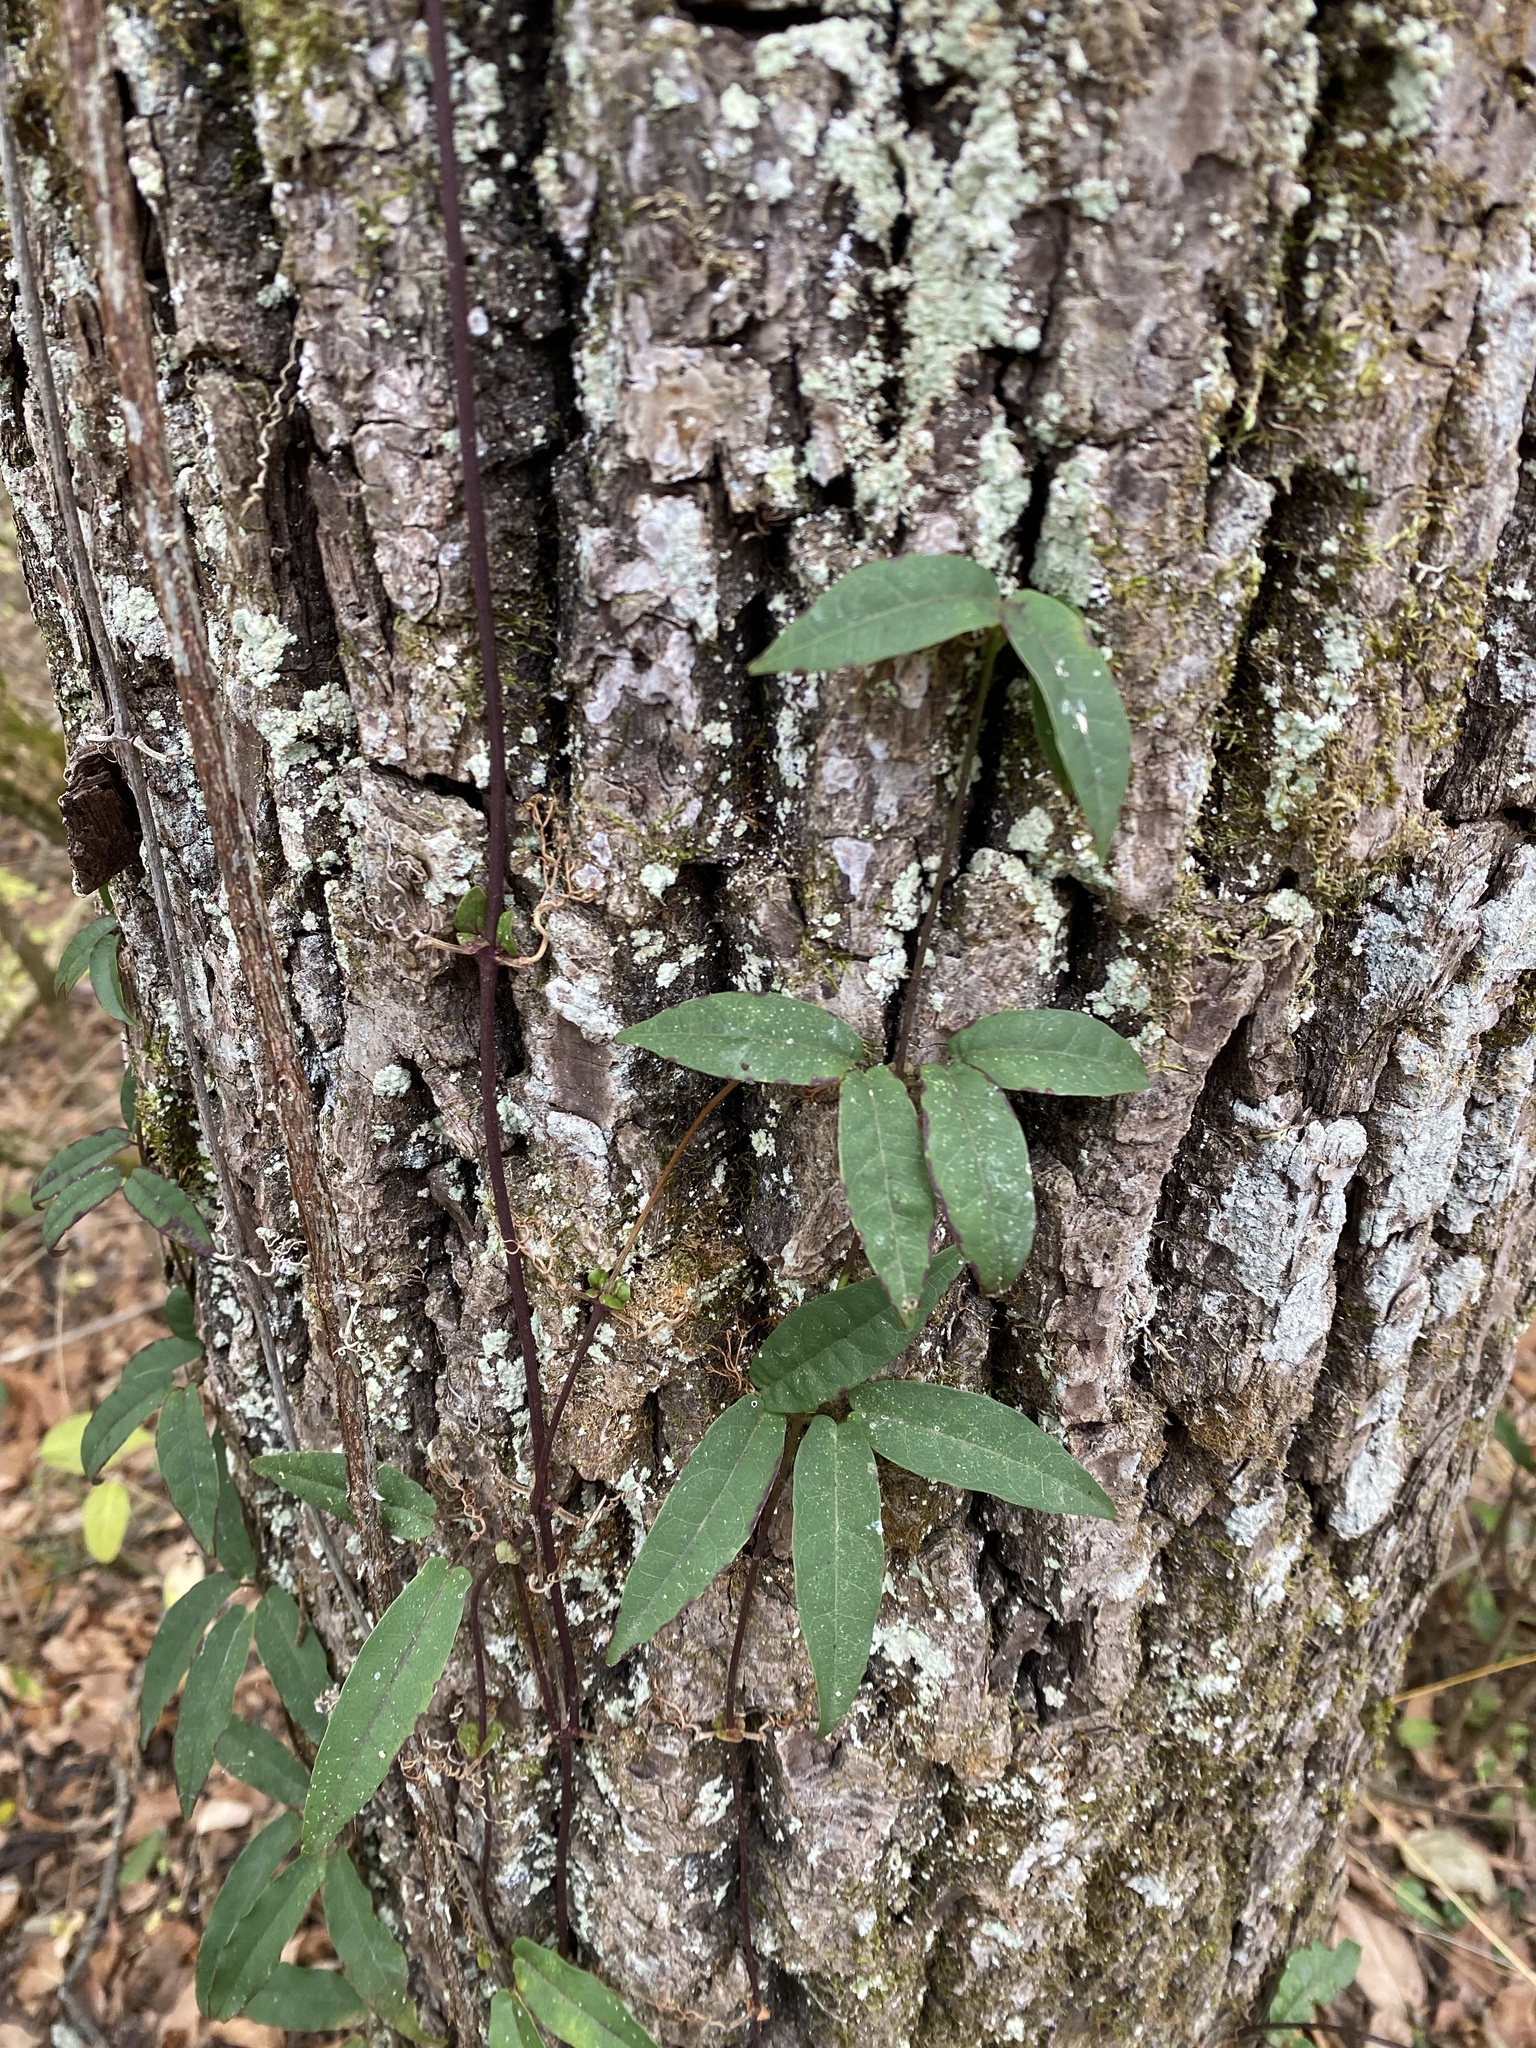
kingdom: Plantae
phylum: Tracheophyta
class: Magnoliopsida
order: Lamiales
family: Bignoniaceae
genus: Bignonia
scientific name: Bignonia capreolata
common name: Crossvine
